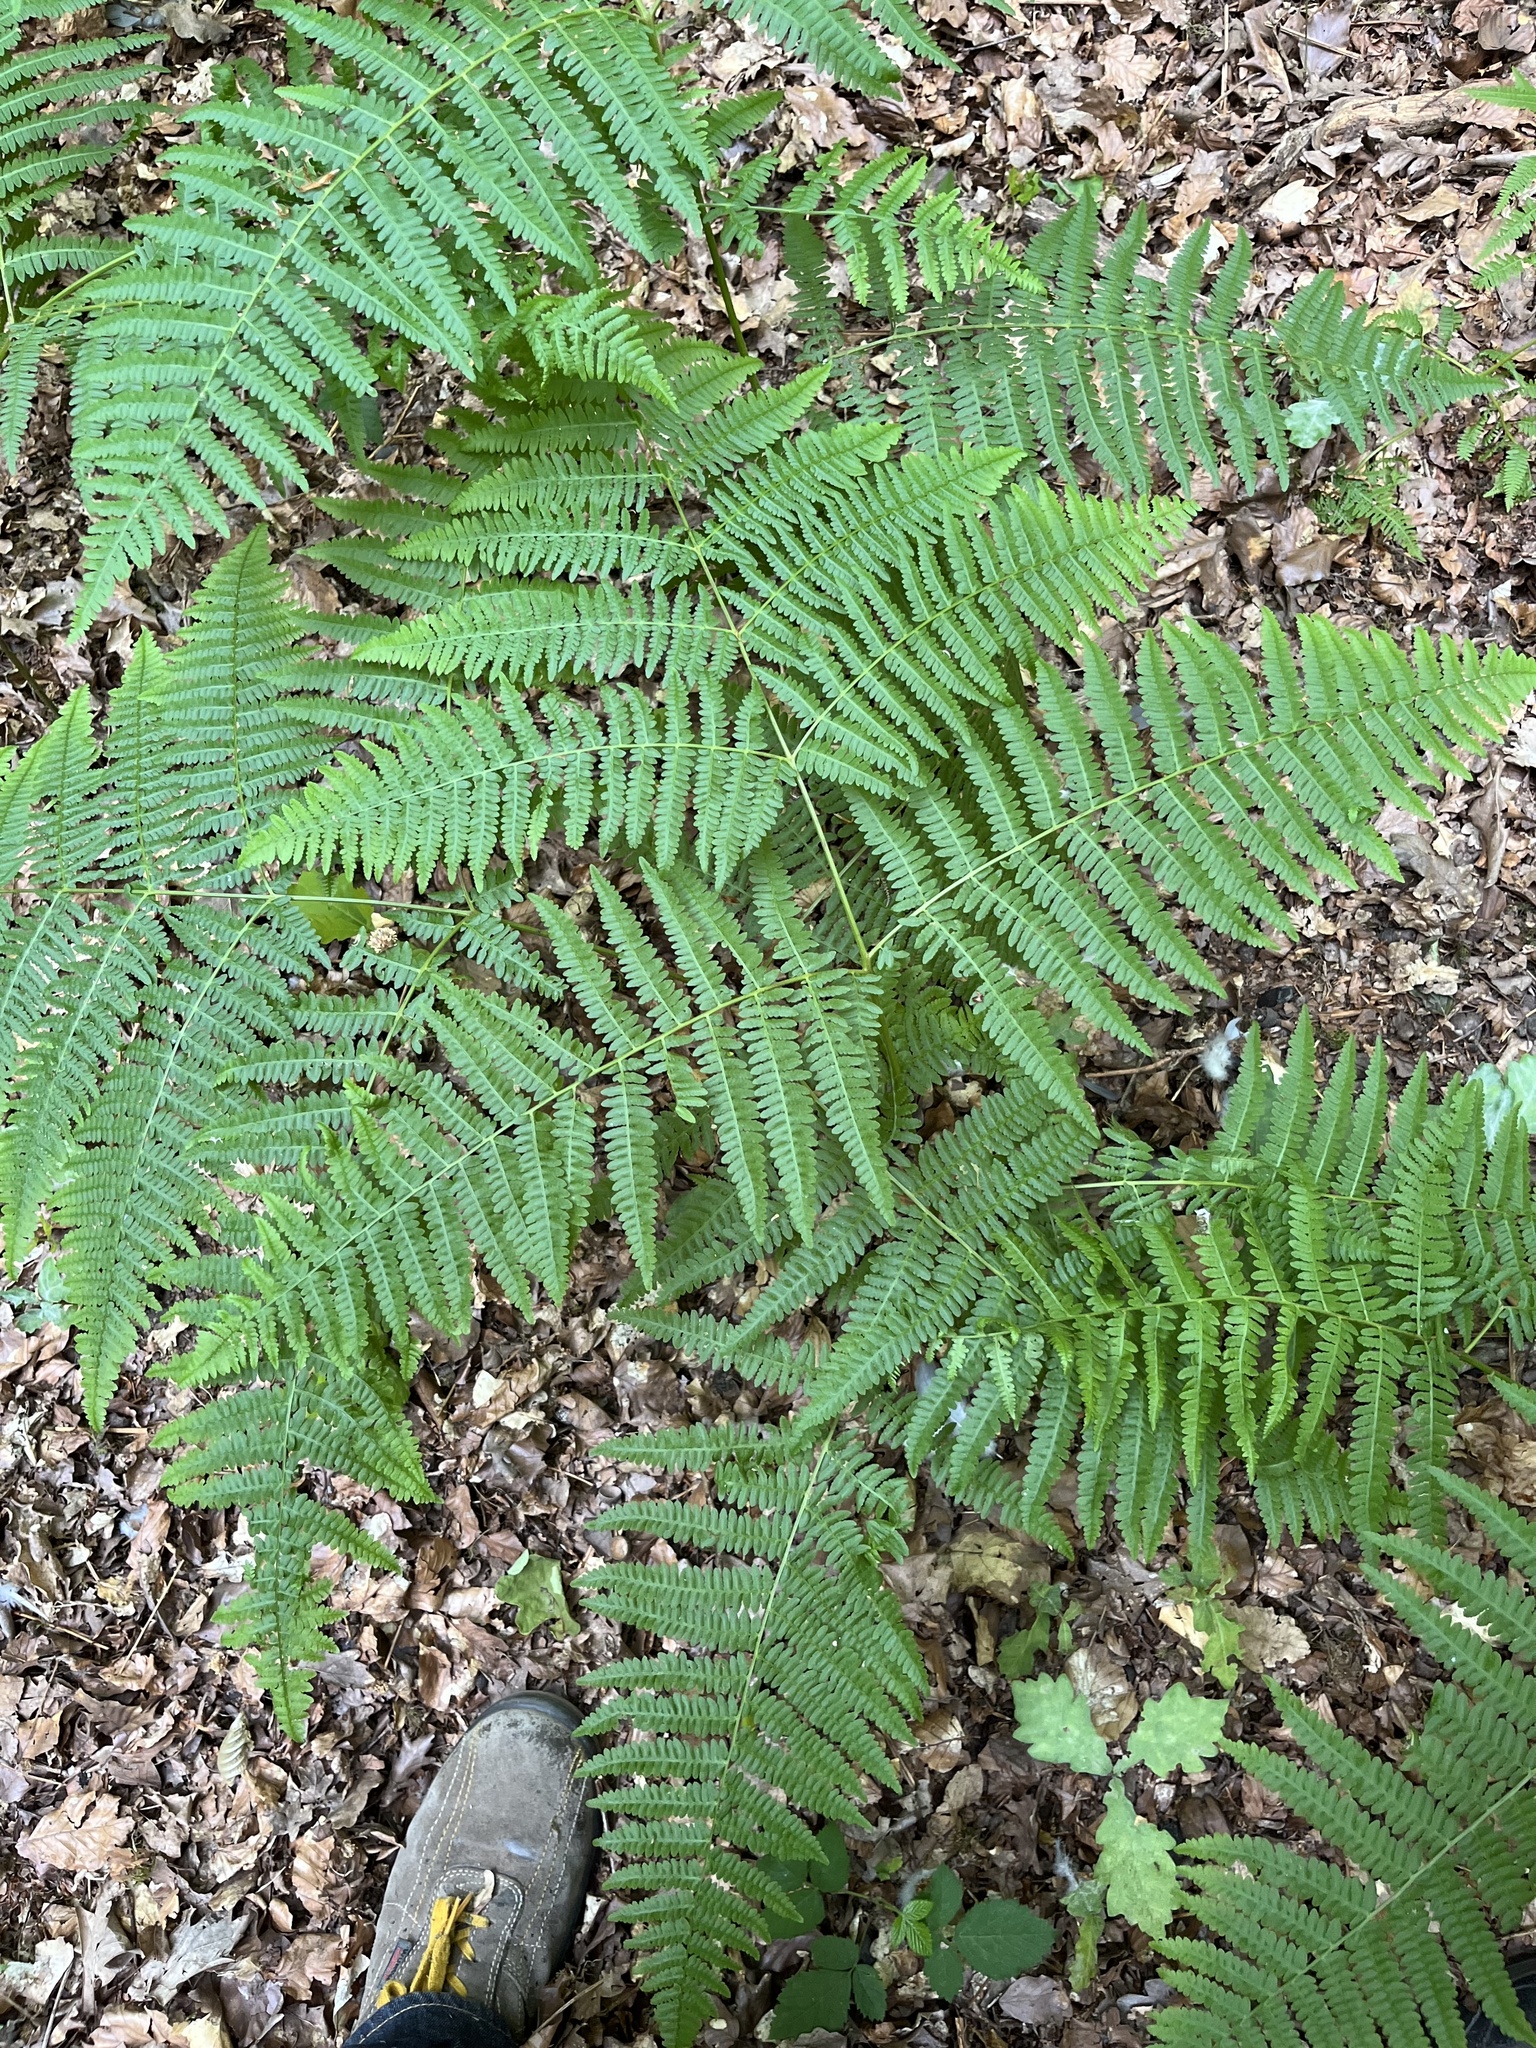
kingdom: Plantae
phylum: Tracheophyta
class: Polypodiopsida
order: Polypodiales
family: Dennstaedtiaceae
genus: Pteridium
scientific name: Pteridium aquilinum
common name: Bracken
